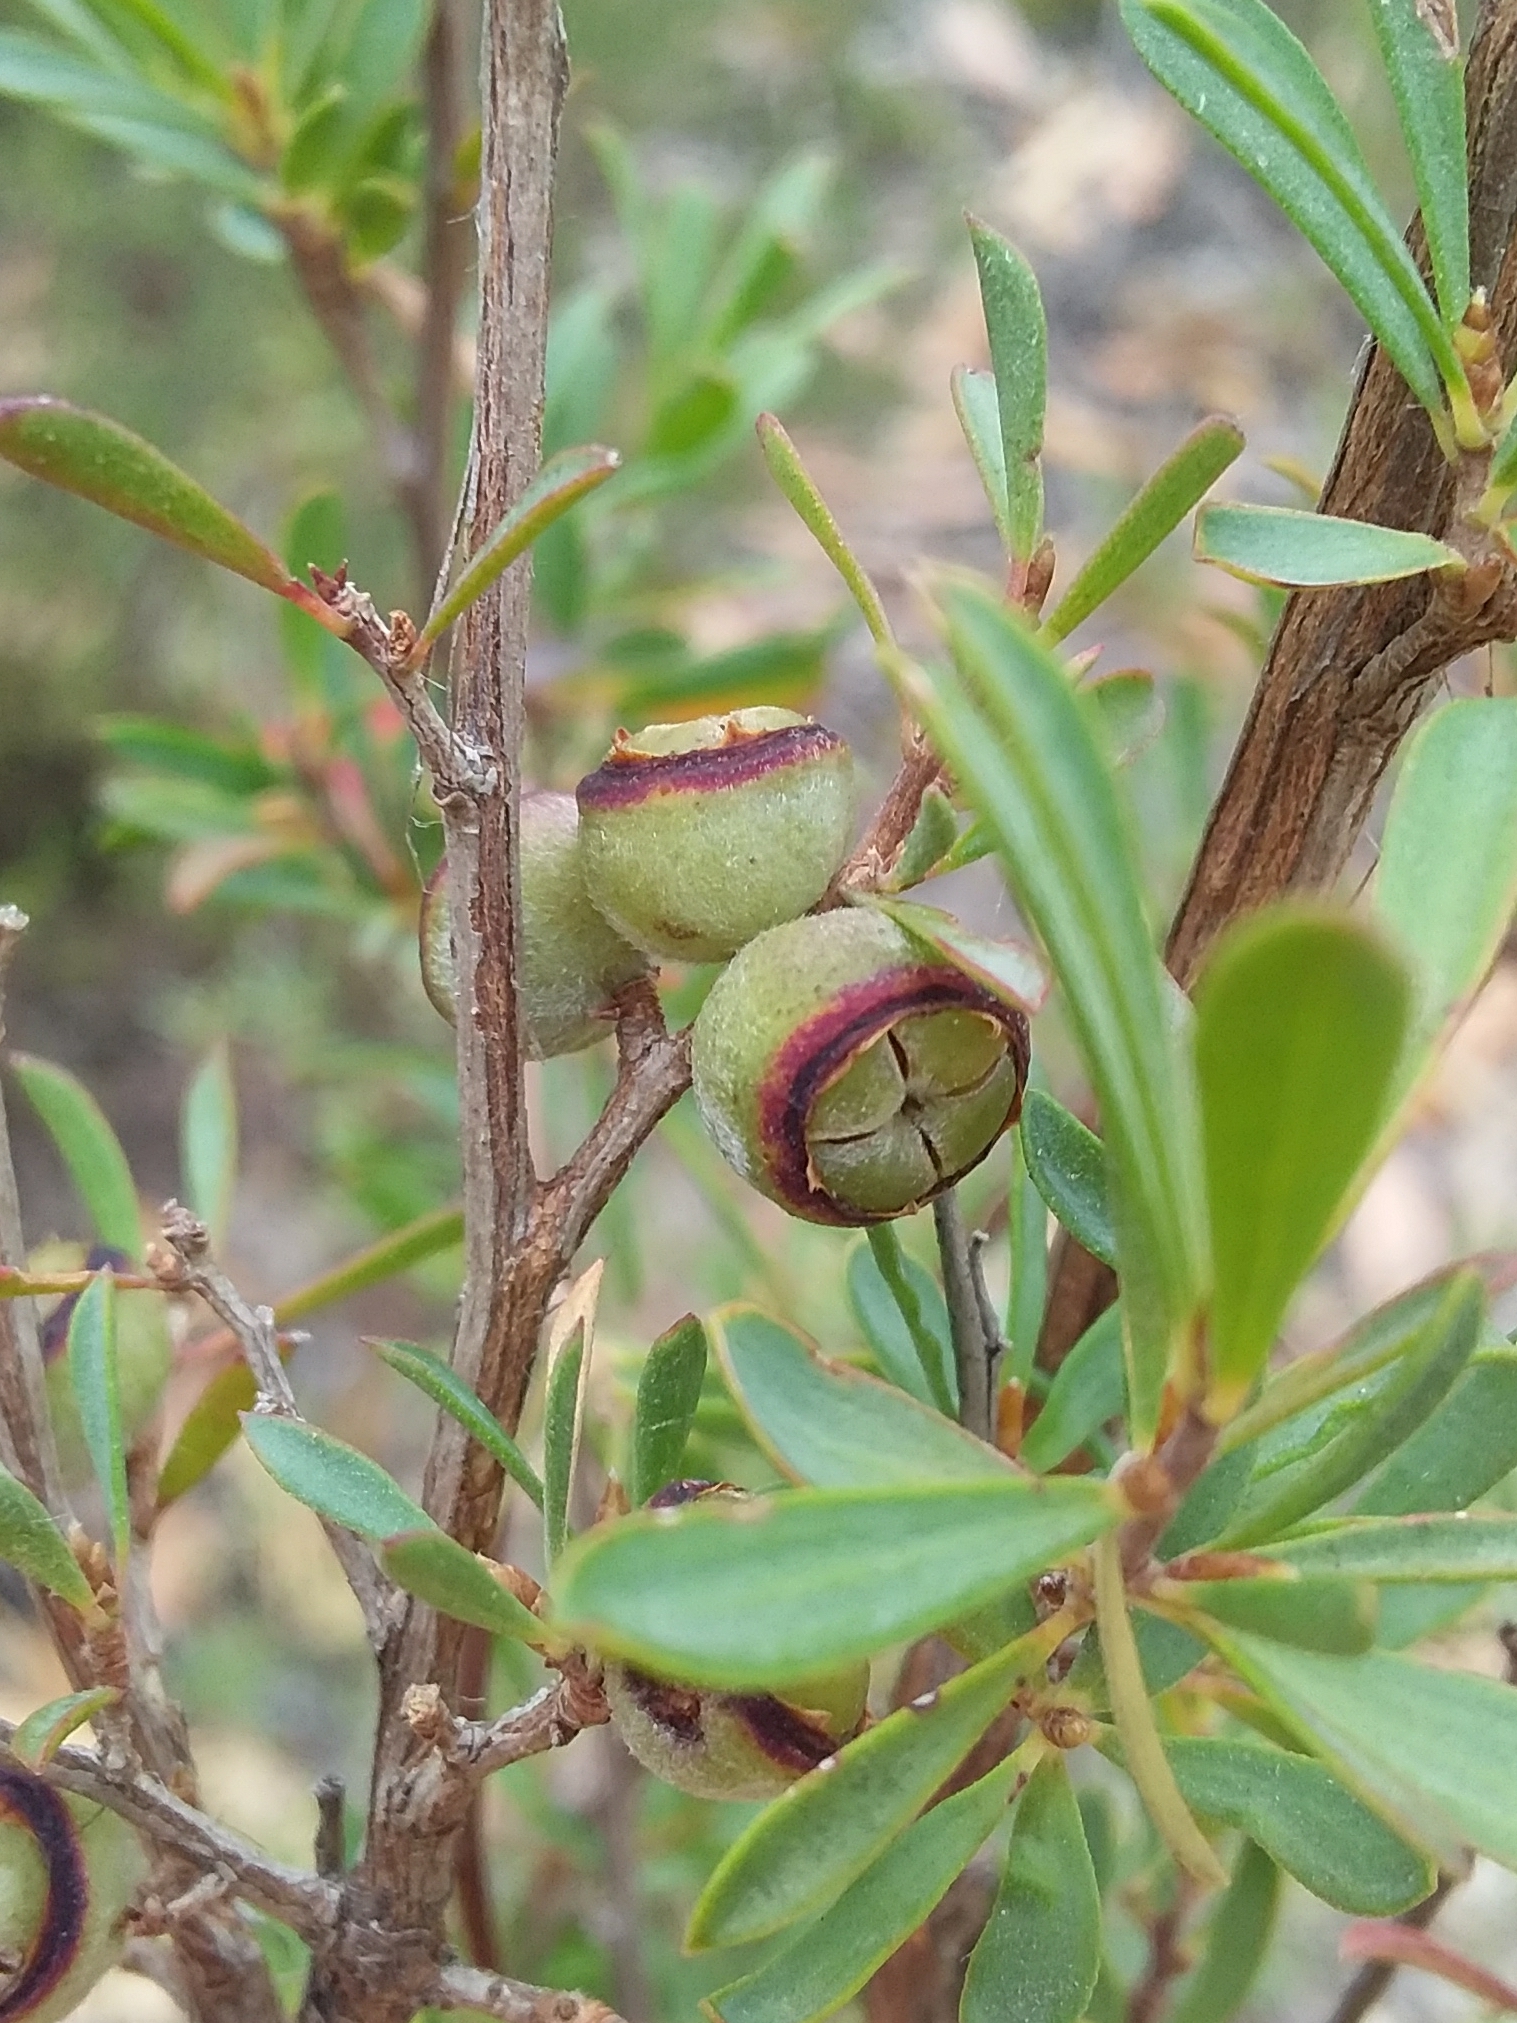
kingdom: Plantae
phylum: Tracheophyta
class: Magnoliopsida
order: Myrtales
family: Myrtaceae
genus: Leptospermum
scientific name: Leptospermum myrsinoides
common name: Heath teatree
